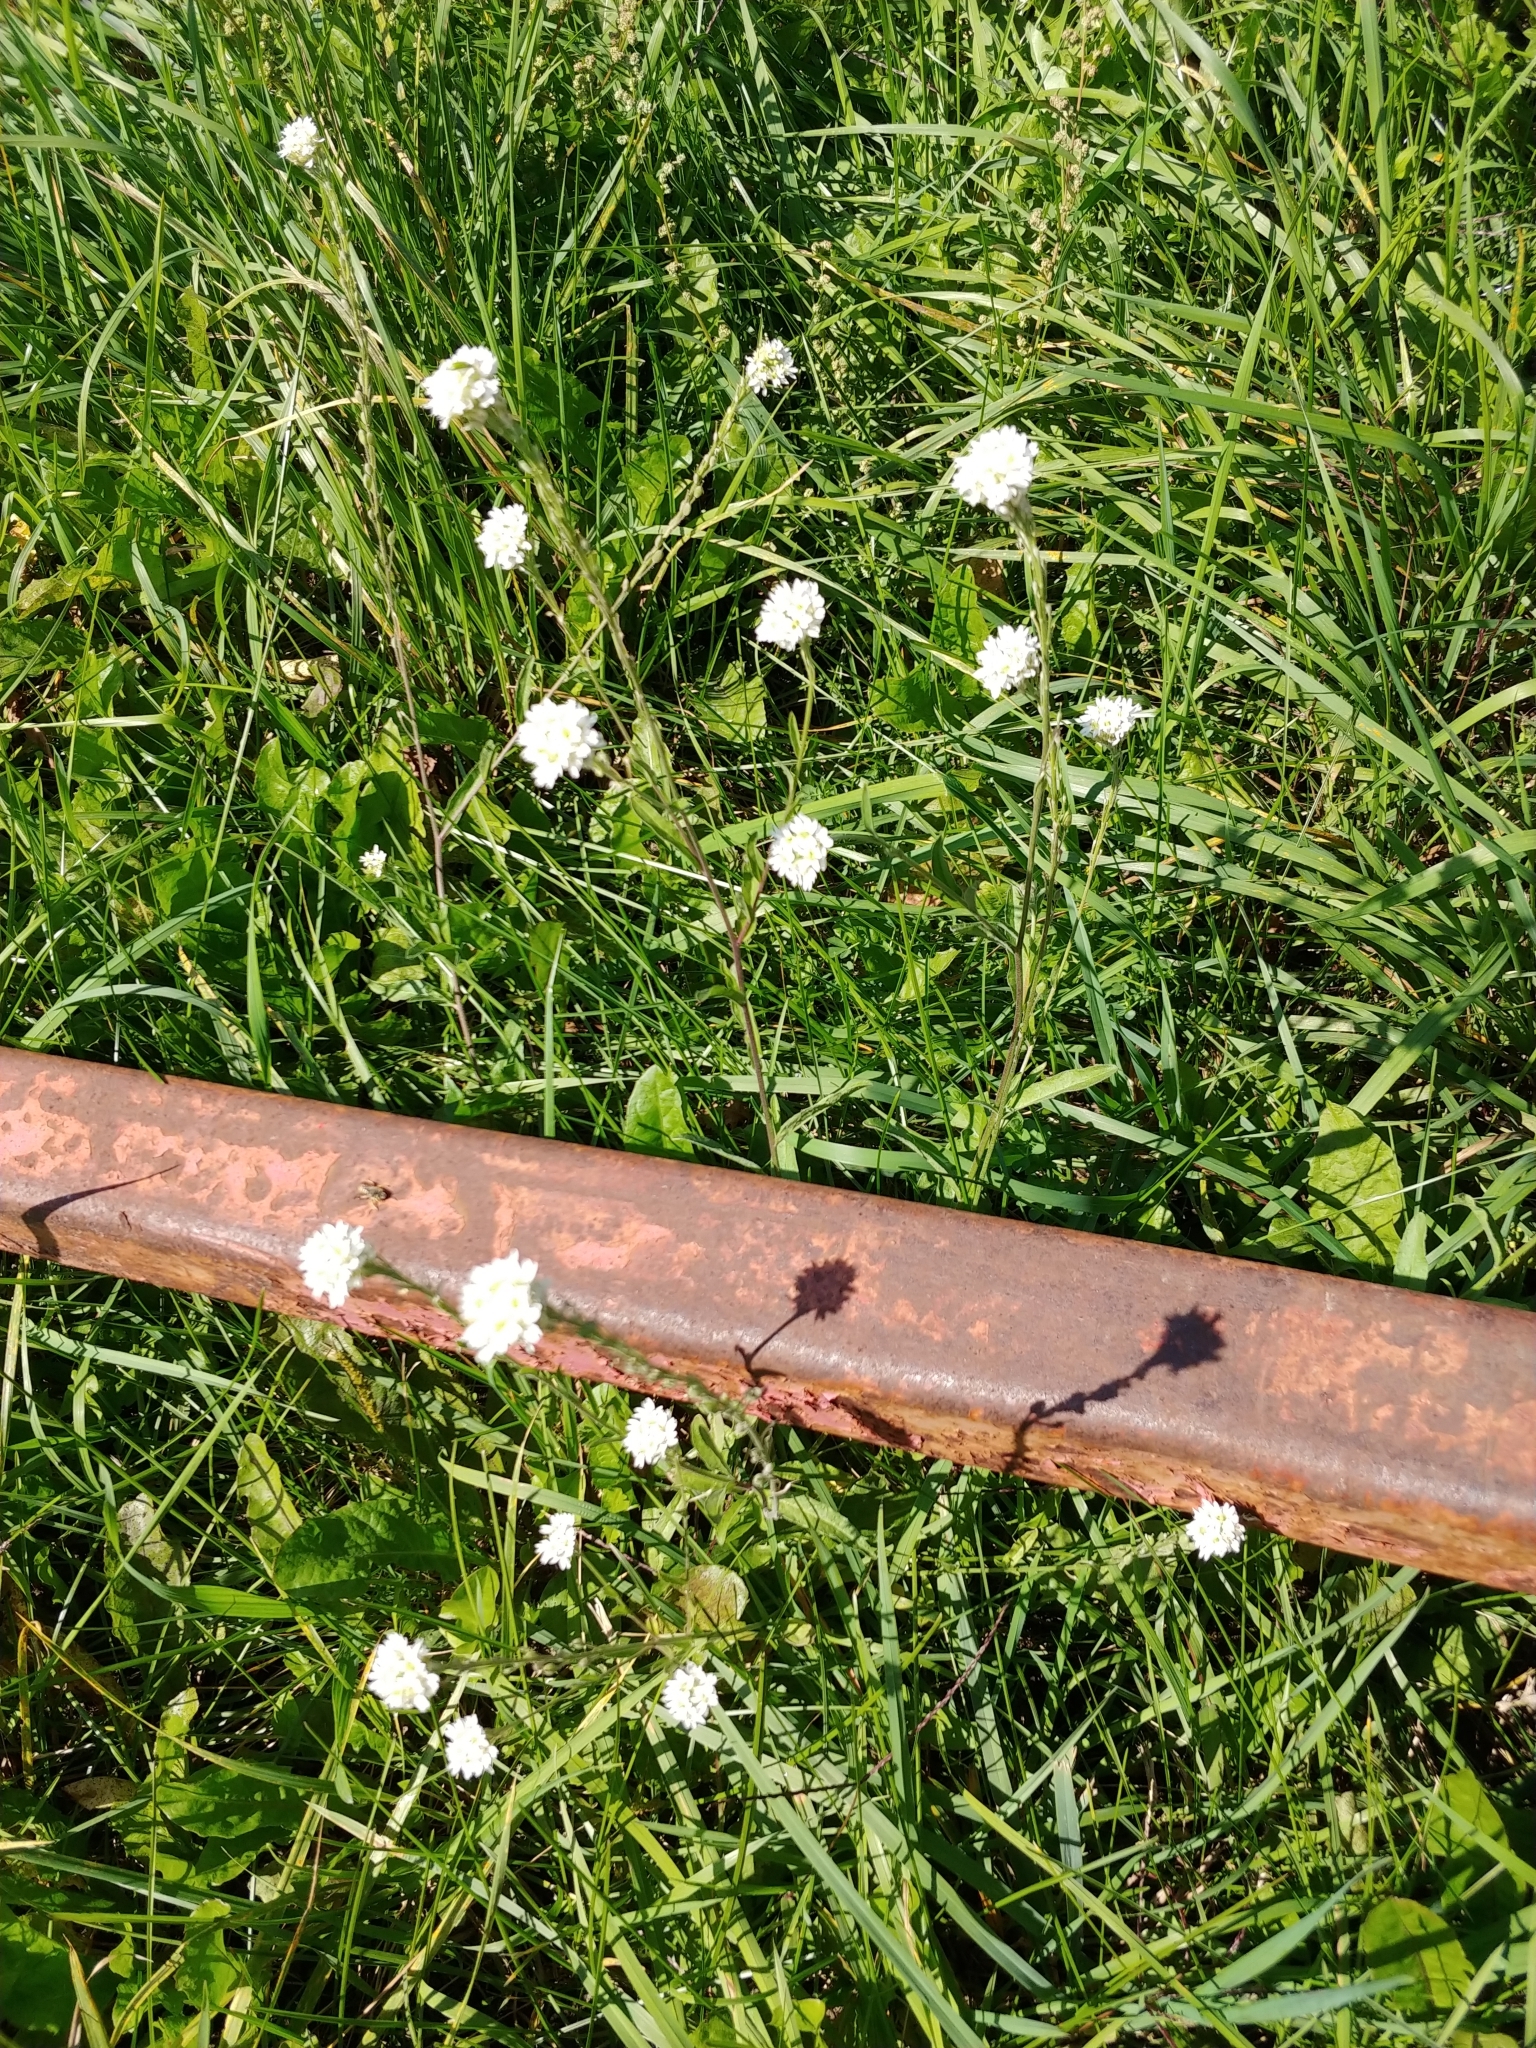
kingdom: Plantae
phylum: Tracheophyta
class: Magnoliopsida
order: Brassicales
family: Brassicaceae
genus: Berteroa
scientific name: Berteroa incana
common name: Hoary alison
